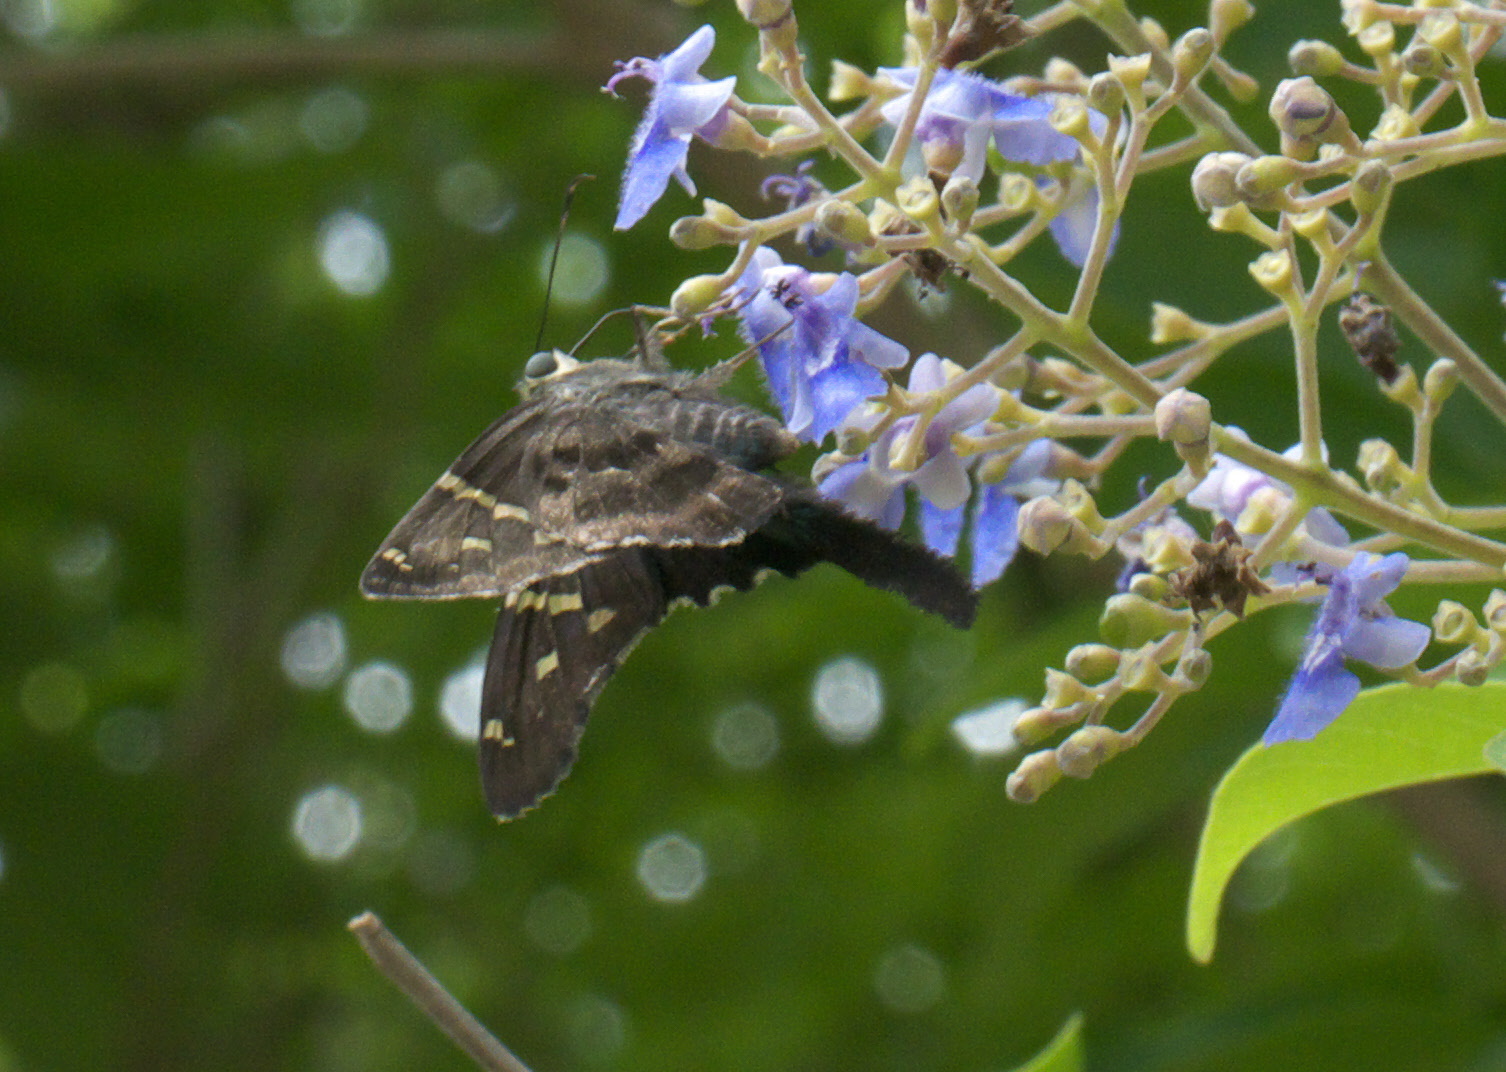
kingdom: Animalia
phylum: Arthropoda
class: Insecta
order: Lepidoptera
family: Hesperiidae
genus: Urbanus
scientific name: Urbanus proteus
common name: Long-tailed skipper
